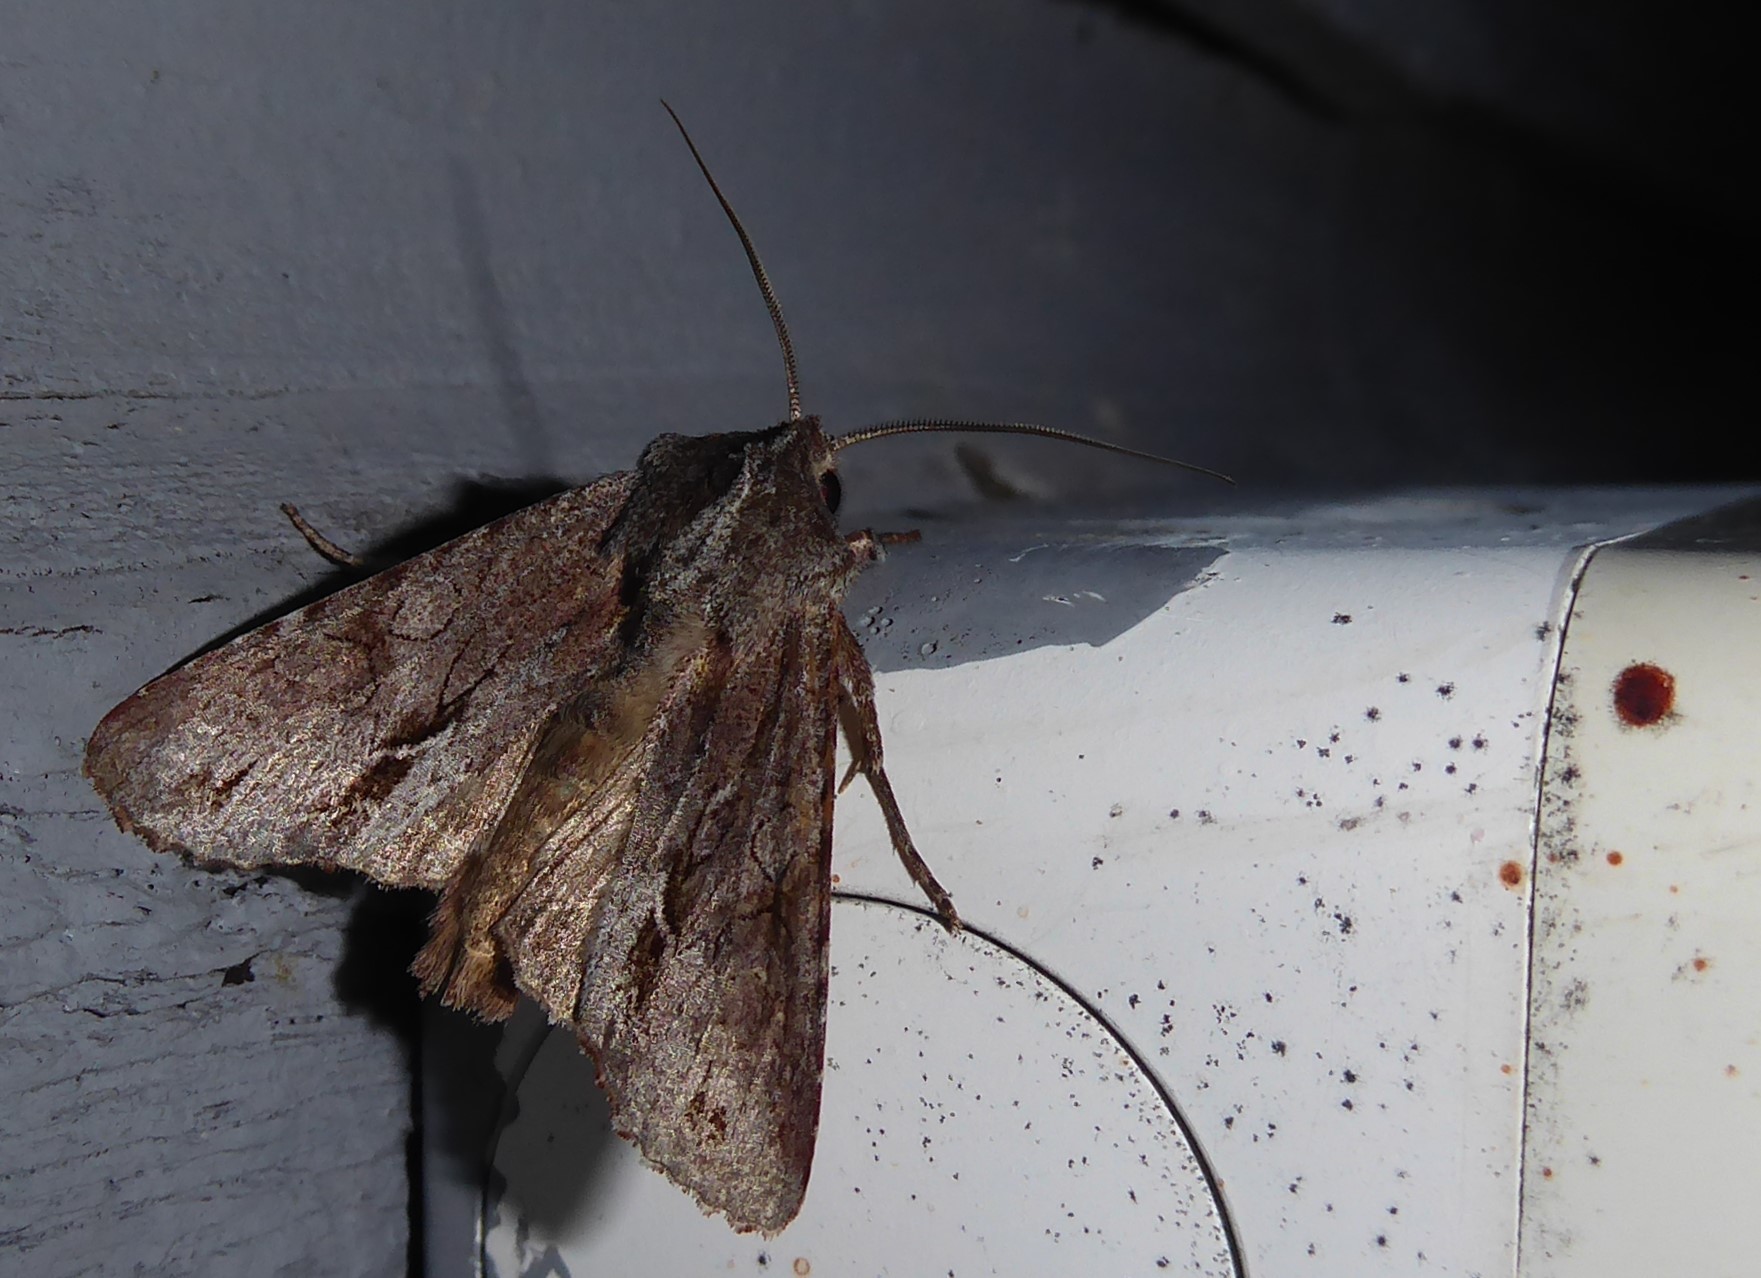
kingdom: Animalia
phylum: Arthropoda
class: Insecta
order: Lepidoptera
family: Noctuidae
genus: Ichneutica
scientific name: Ichneutica
